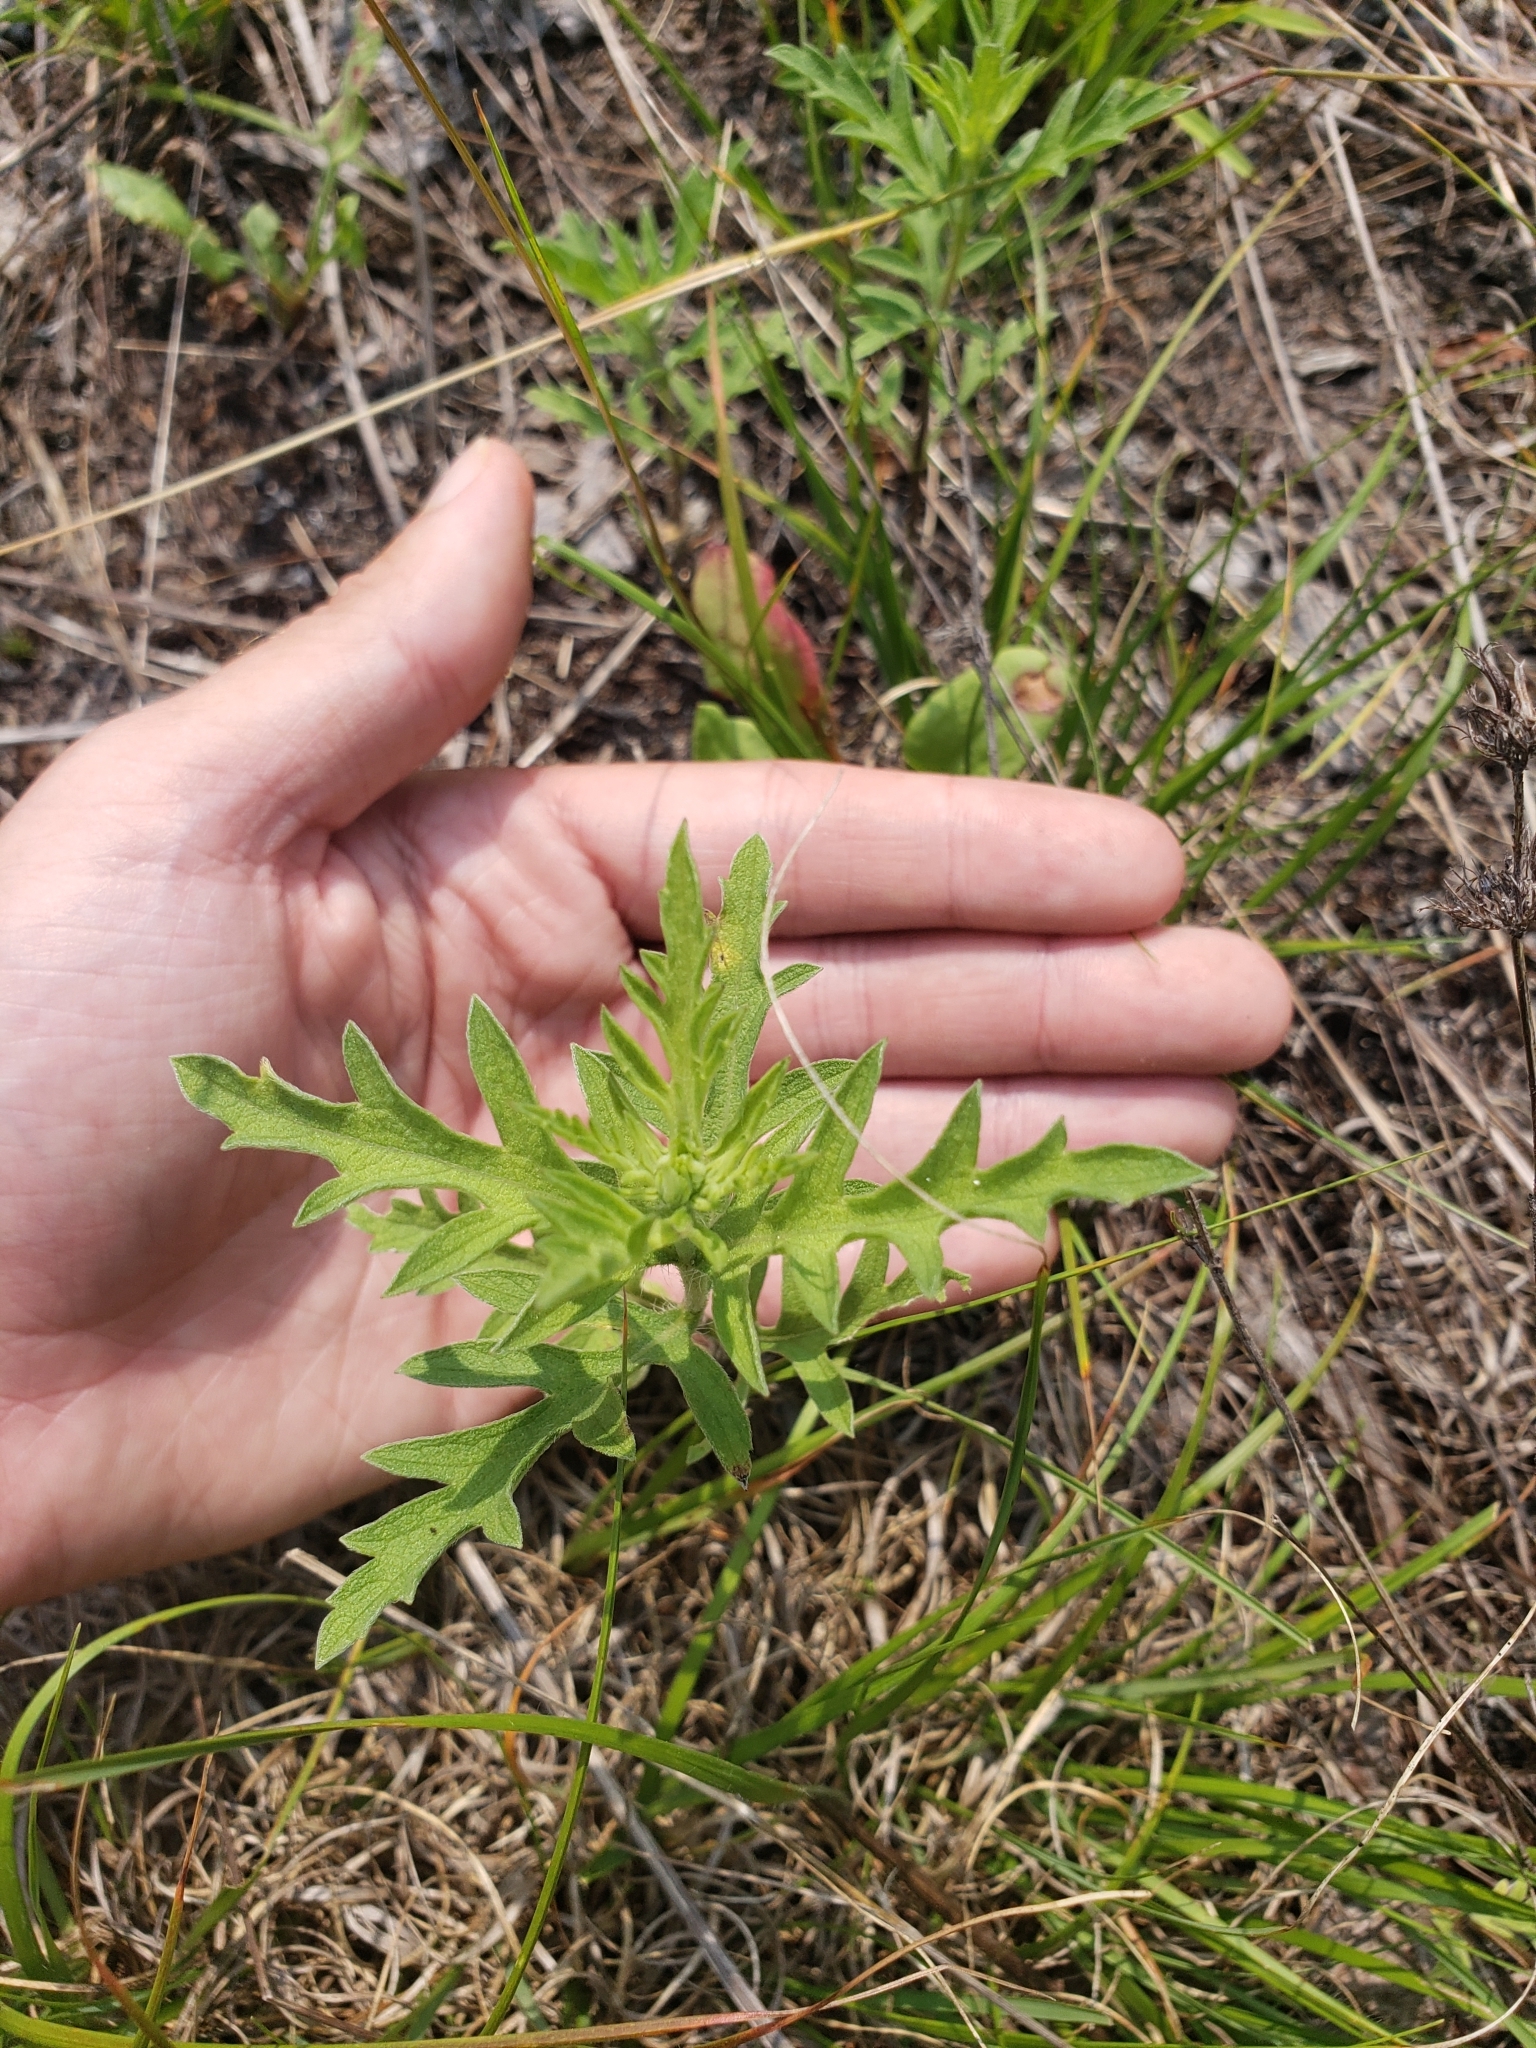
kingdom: Plantae
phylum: Tracheophyta
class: Magnoliopsida
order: Asterales
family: Asteraceae
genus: Ambrosia
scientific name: Ambrosia psilostachya
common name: Perennial ragweed
